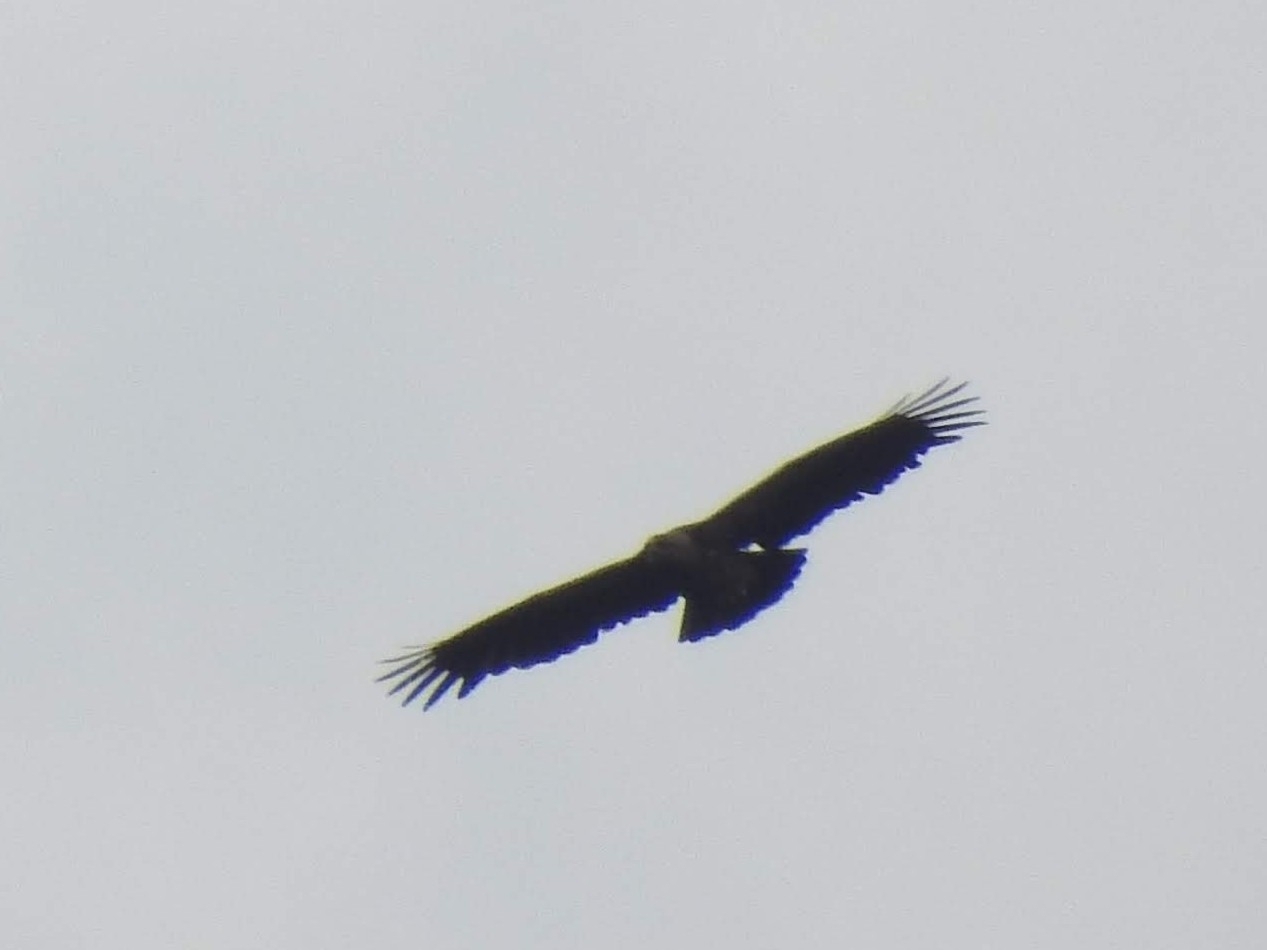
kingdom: Animalia
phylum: Chordata
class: Aves
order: Accipitriformes
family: Accipitridae
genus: Aquila
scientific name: Aquila pomarina
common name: Lesser spotted eagle
